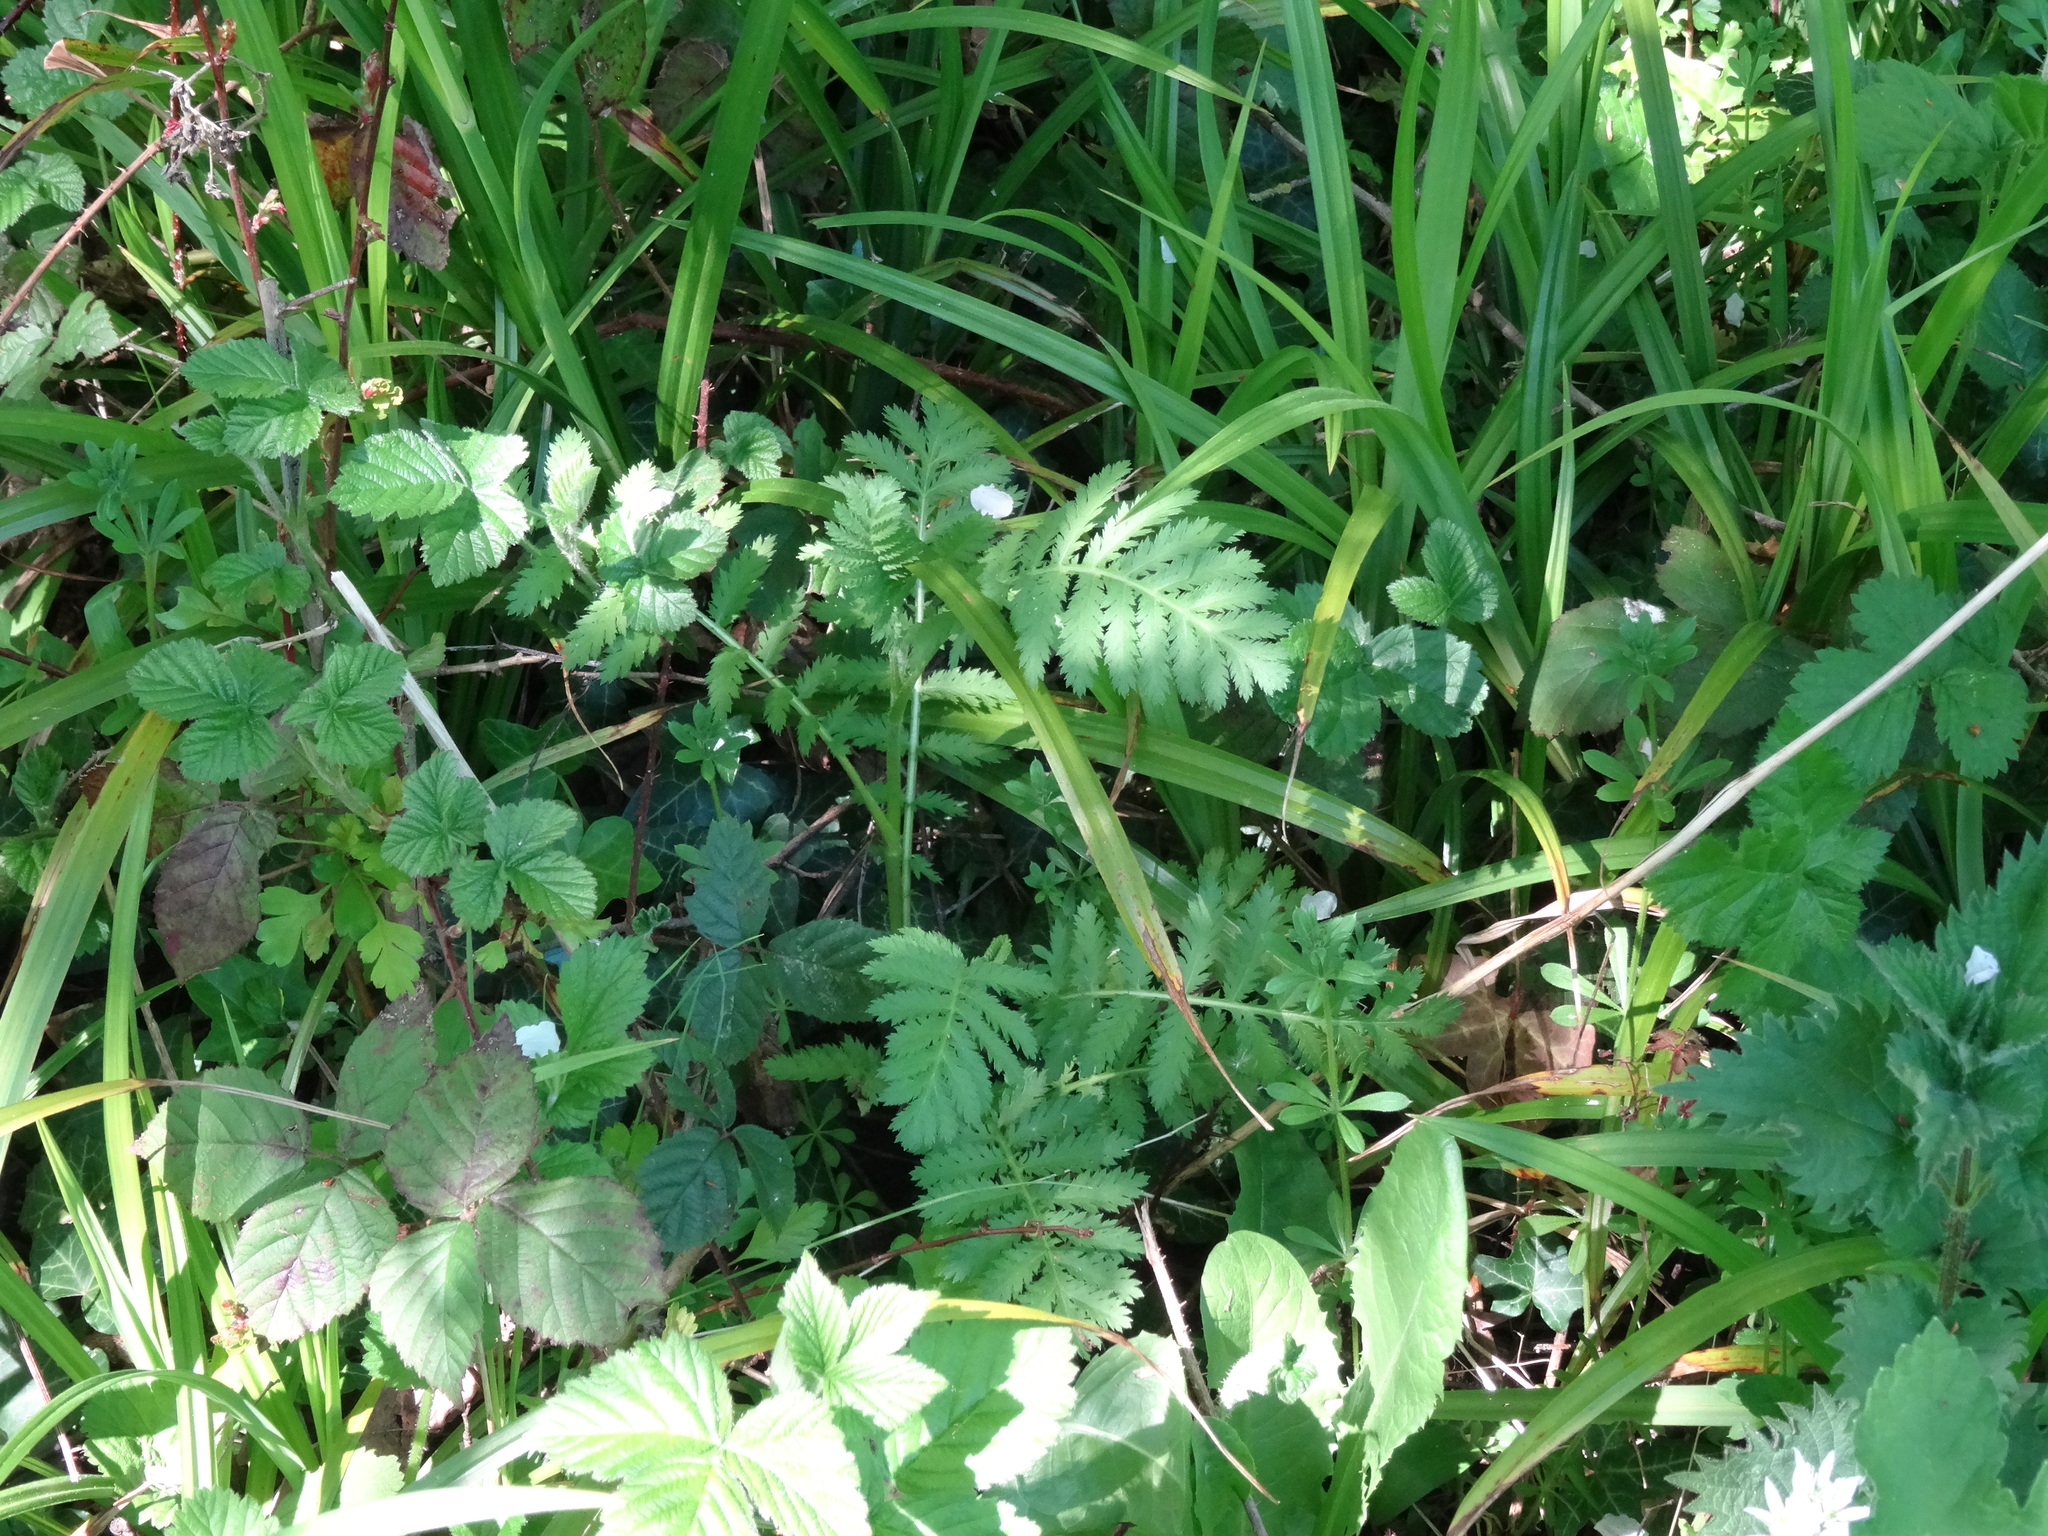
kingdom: Plantae
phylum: Tracheophyta
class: Magnoliopsida
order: Asterales
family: Asteraceae
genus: Tanacetum
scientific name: Tanacetum vulgare
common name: Common tansy
